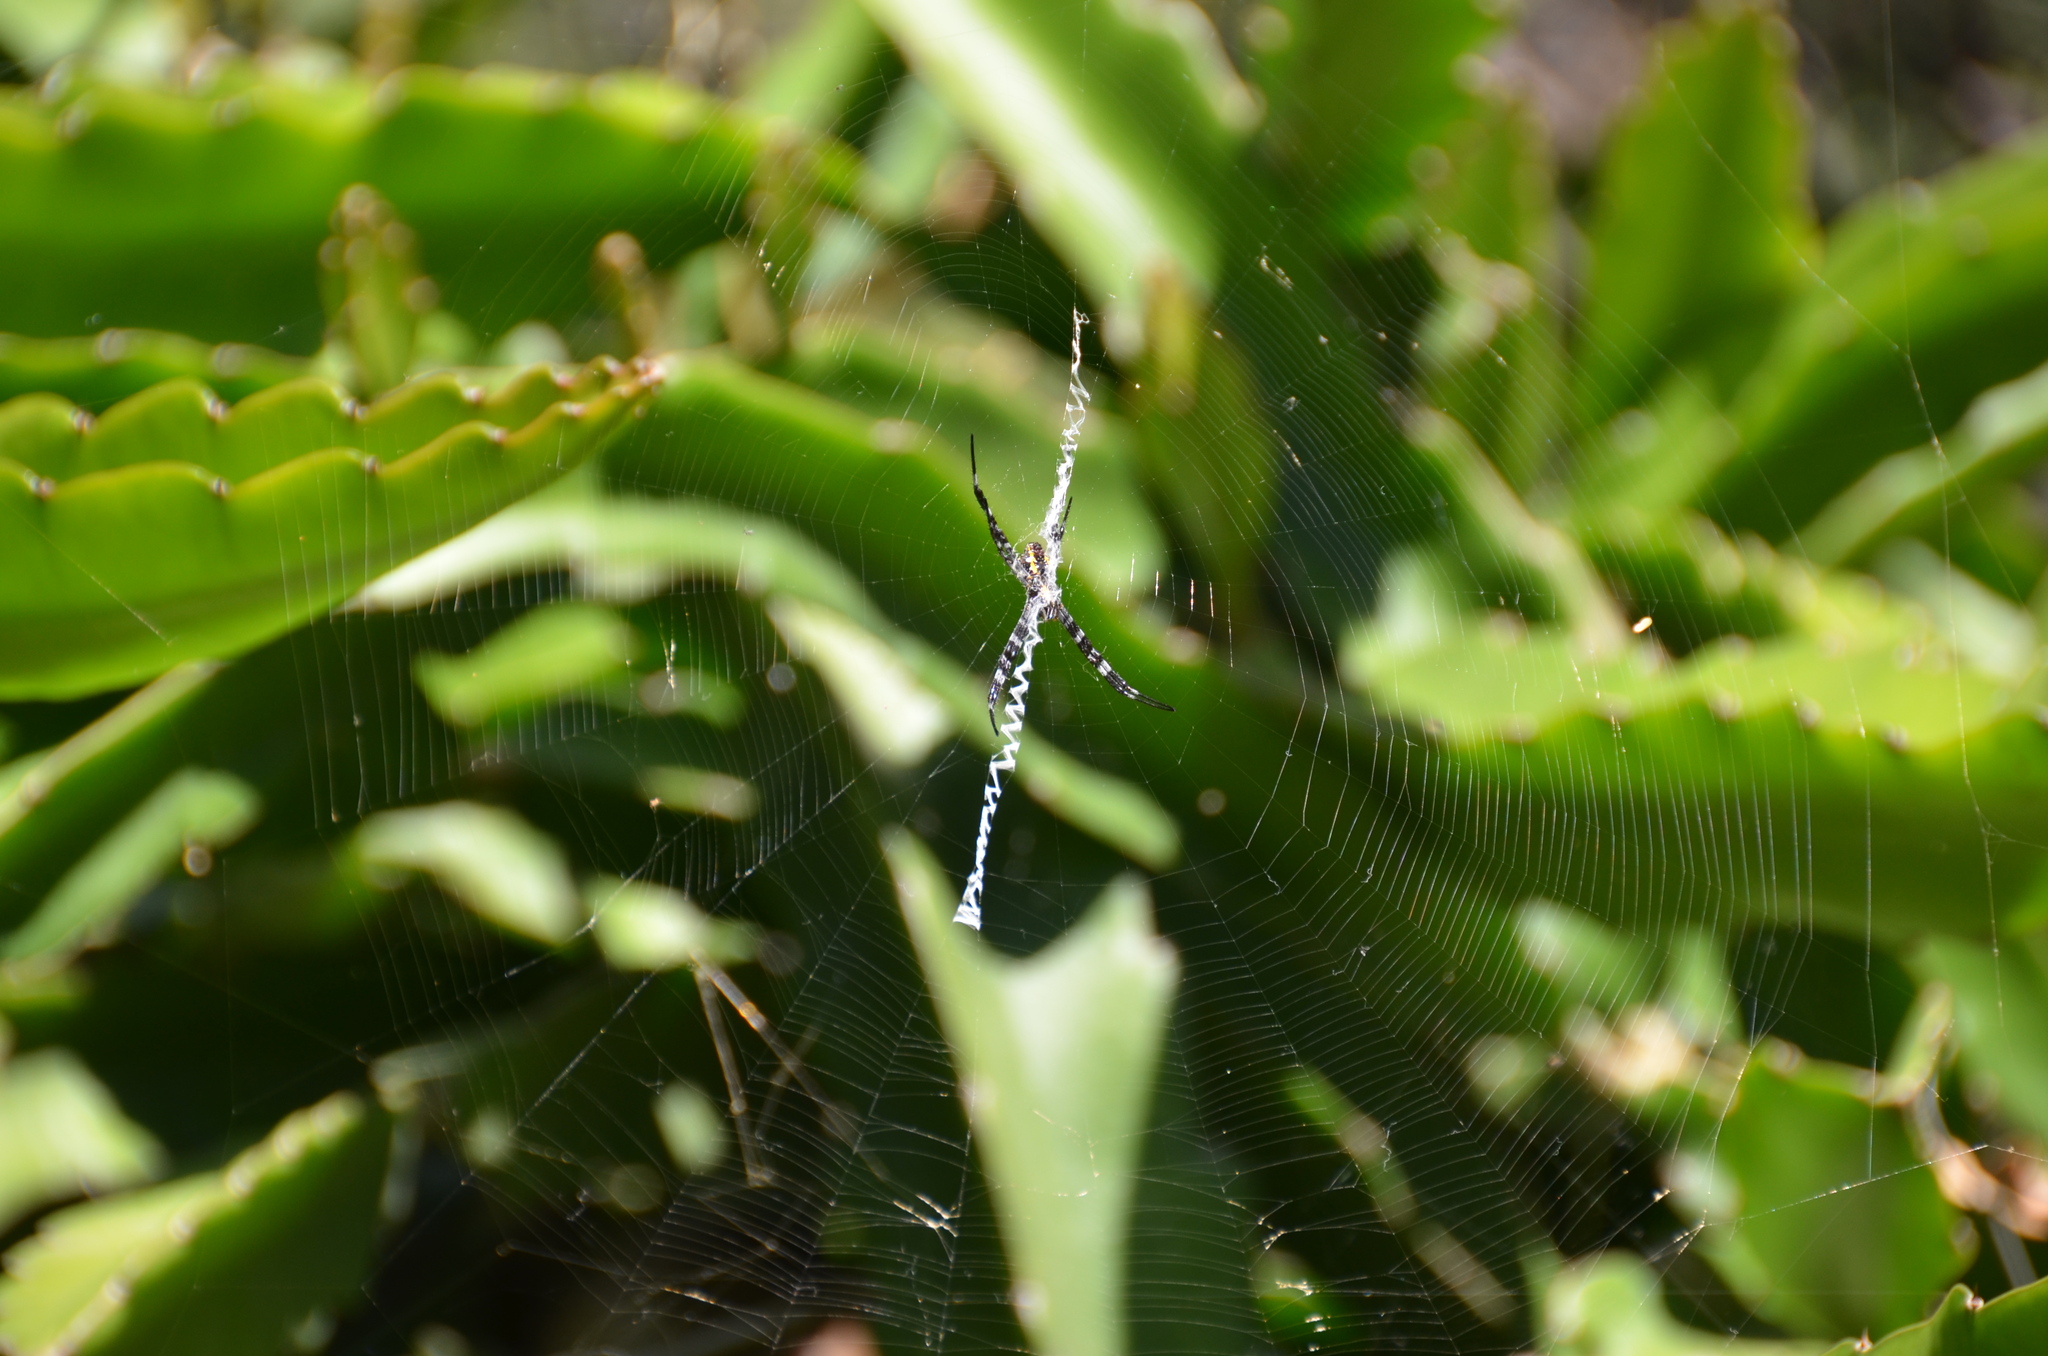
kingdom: Animalia
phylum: Arthropoda
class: Arachnida
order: Araneae
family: Araneidae
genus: Argiope
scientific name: Argiope appensa
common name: Garden spider
